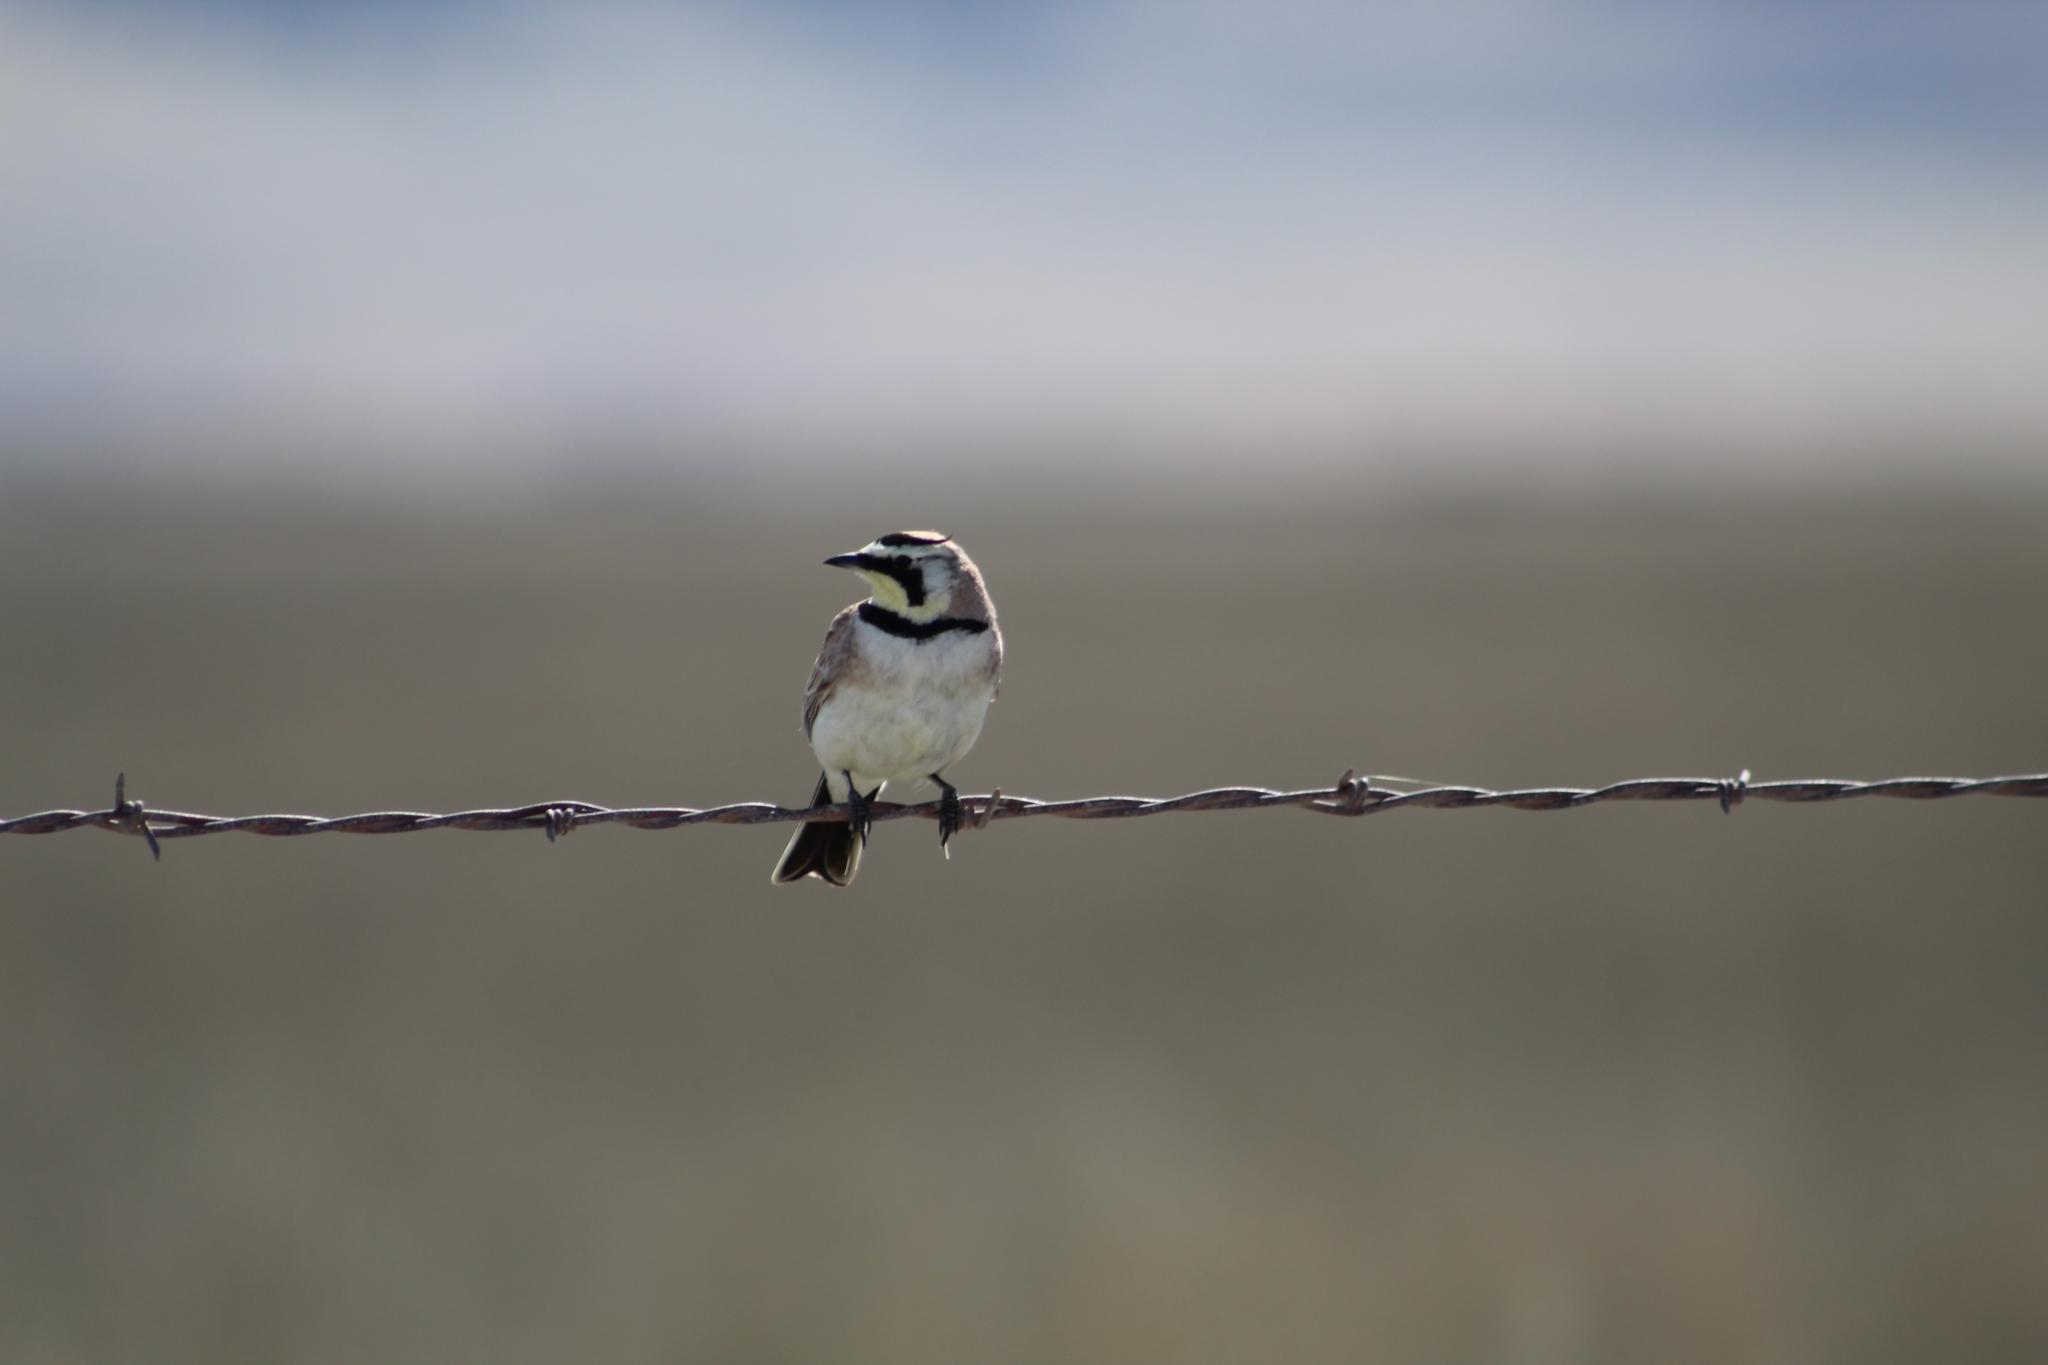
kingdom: Animalia
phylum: Chordata
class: Aves
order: Passeriformes
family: Alaudidae
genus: Eremophila
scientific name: Eremophila alpestris
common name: Horned lark
